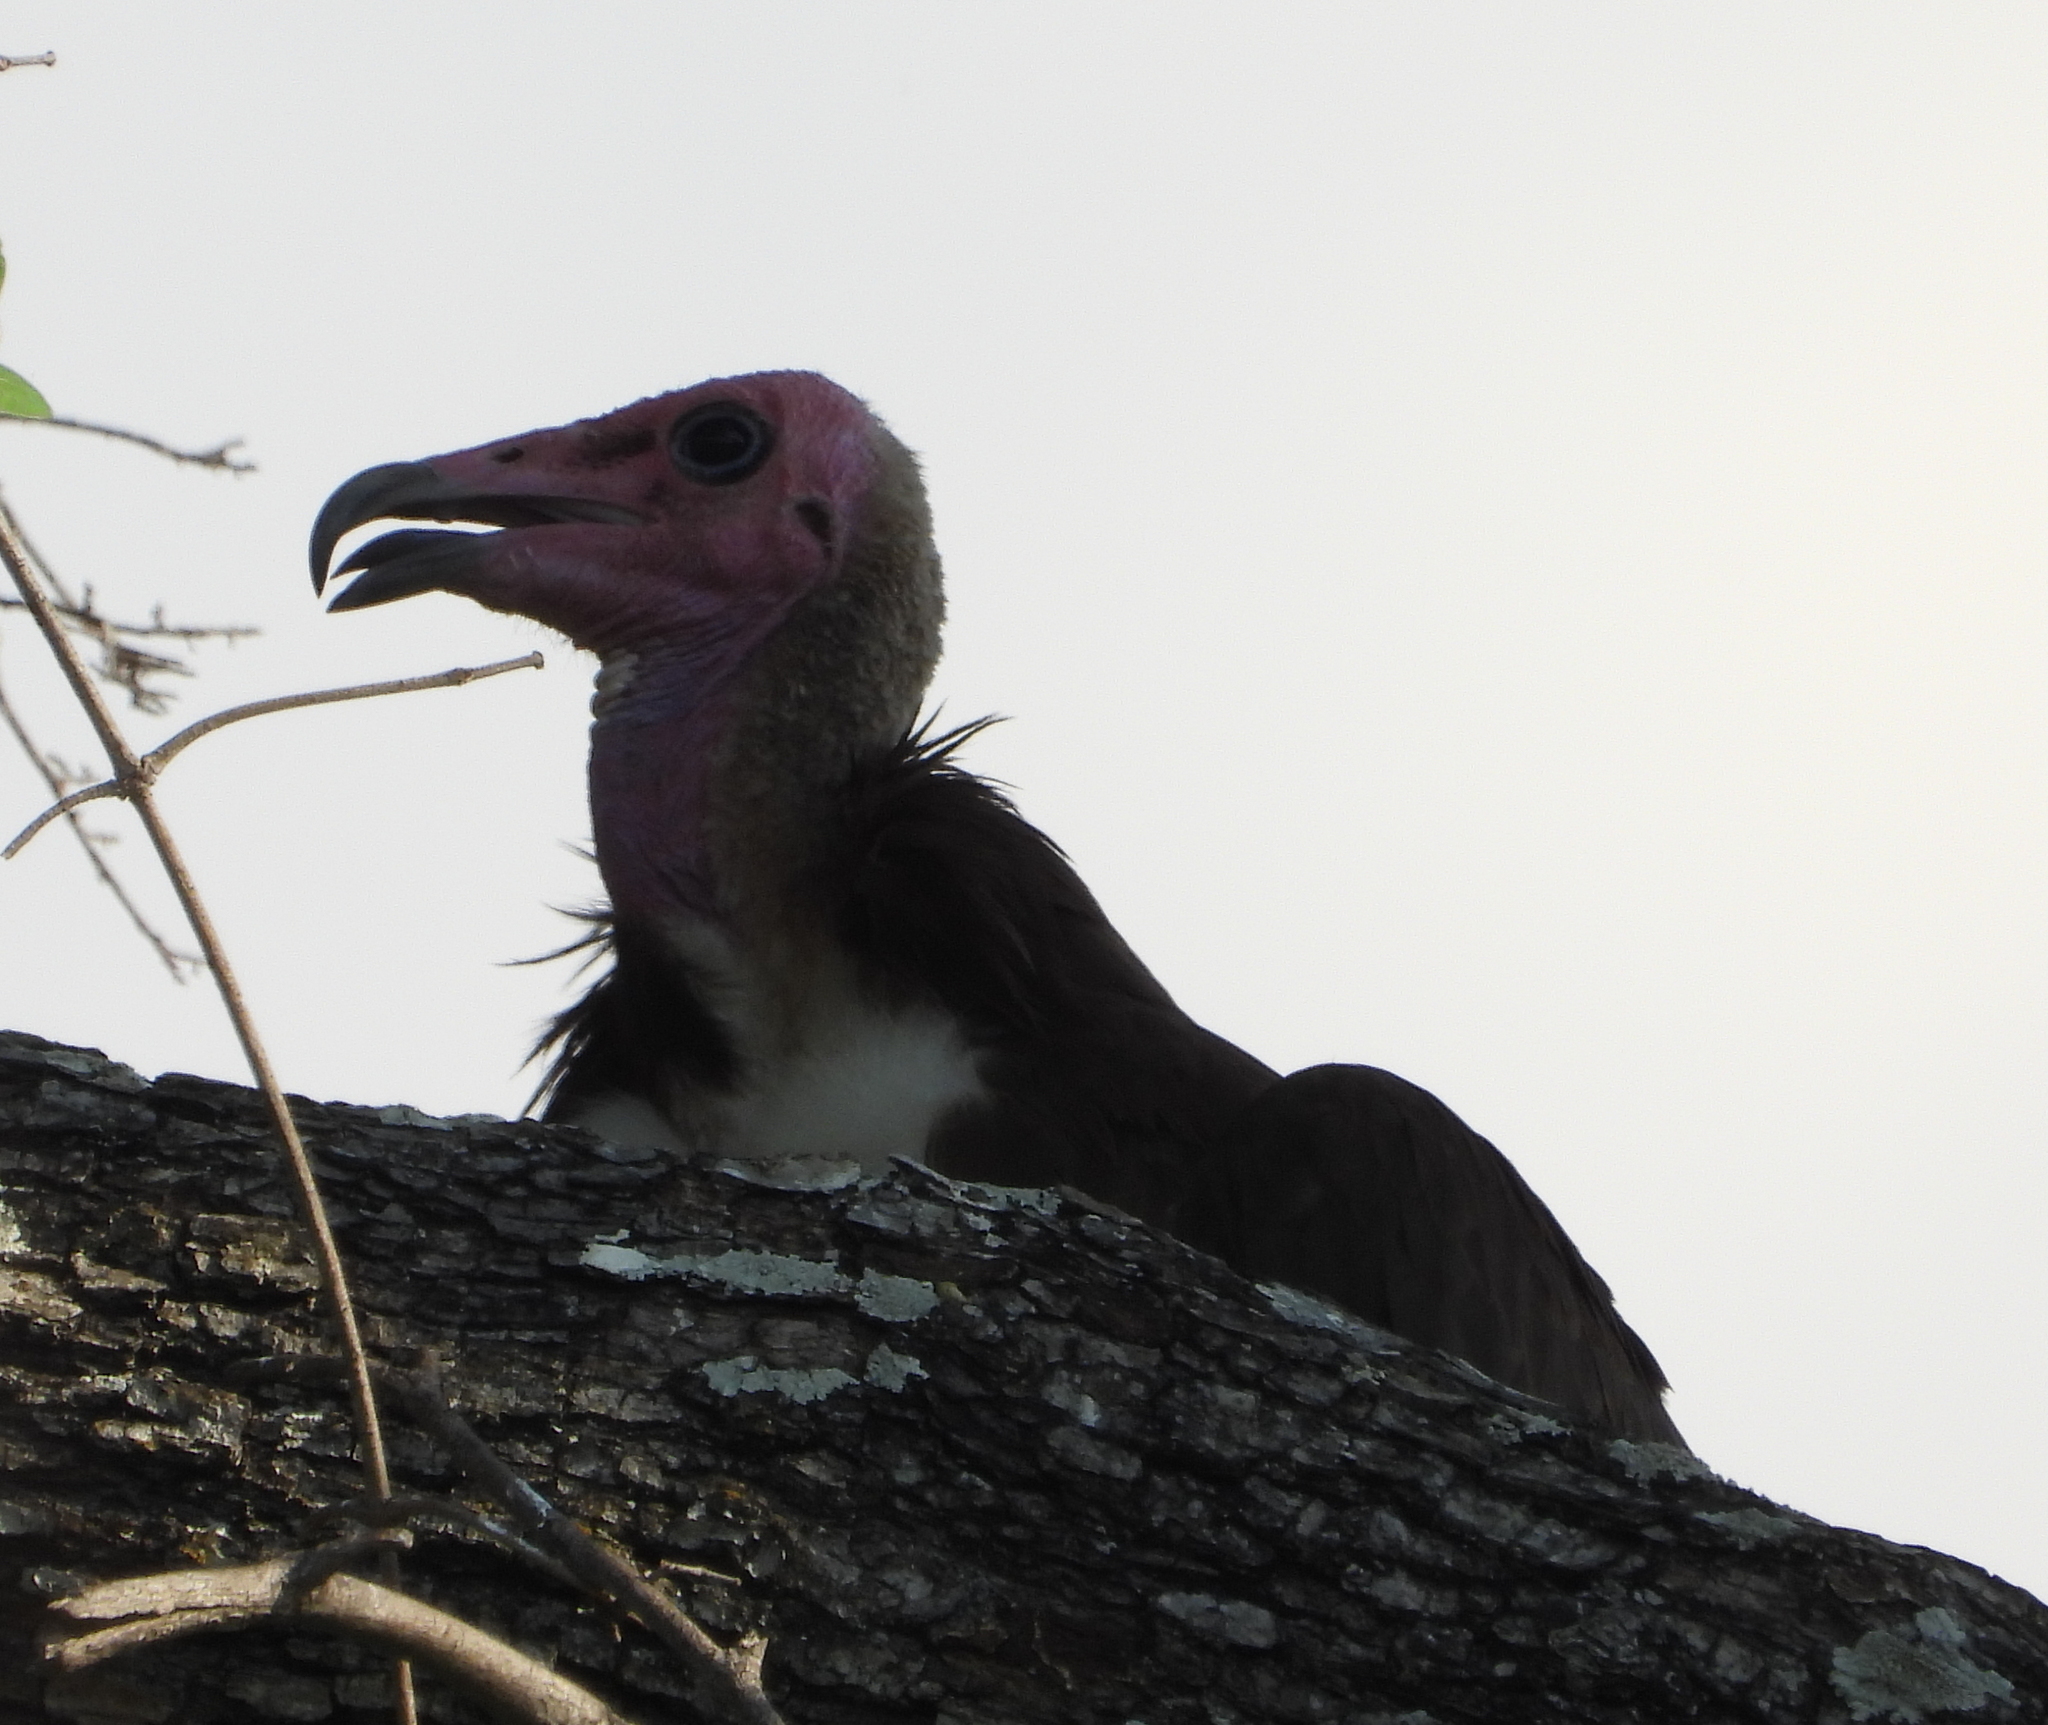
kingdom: Animalia
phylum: Chordata
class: Aves
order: Accipitriformes
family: Accipitridae
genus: Necrosyrtes
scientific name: Necrosyrtes monachus
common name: Hooded vulture
